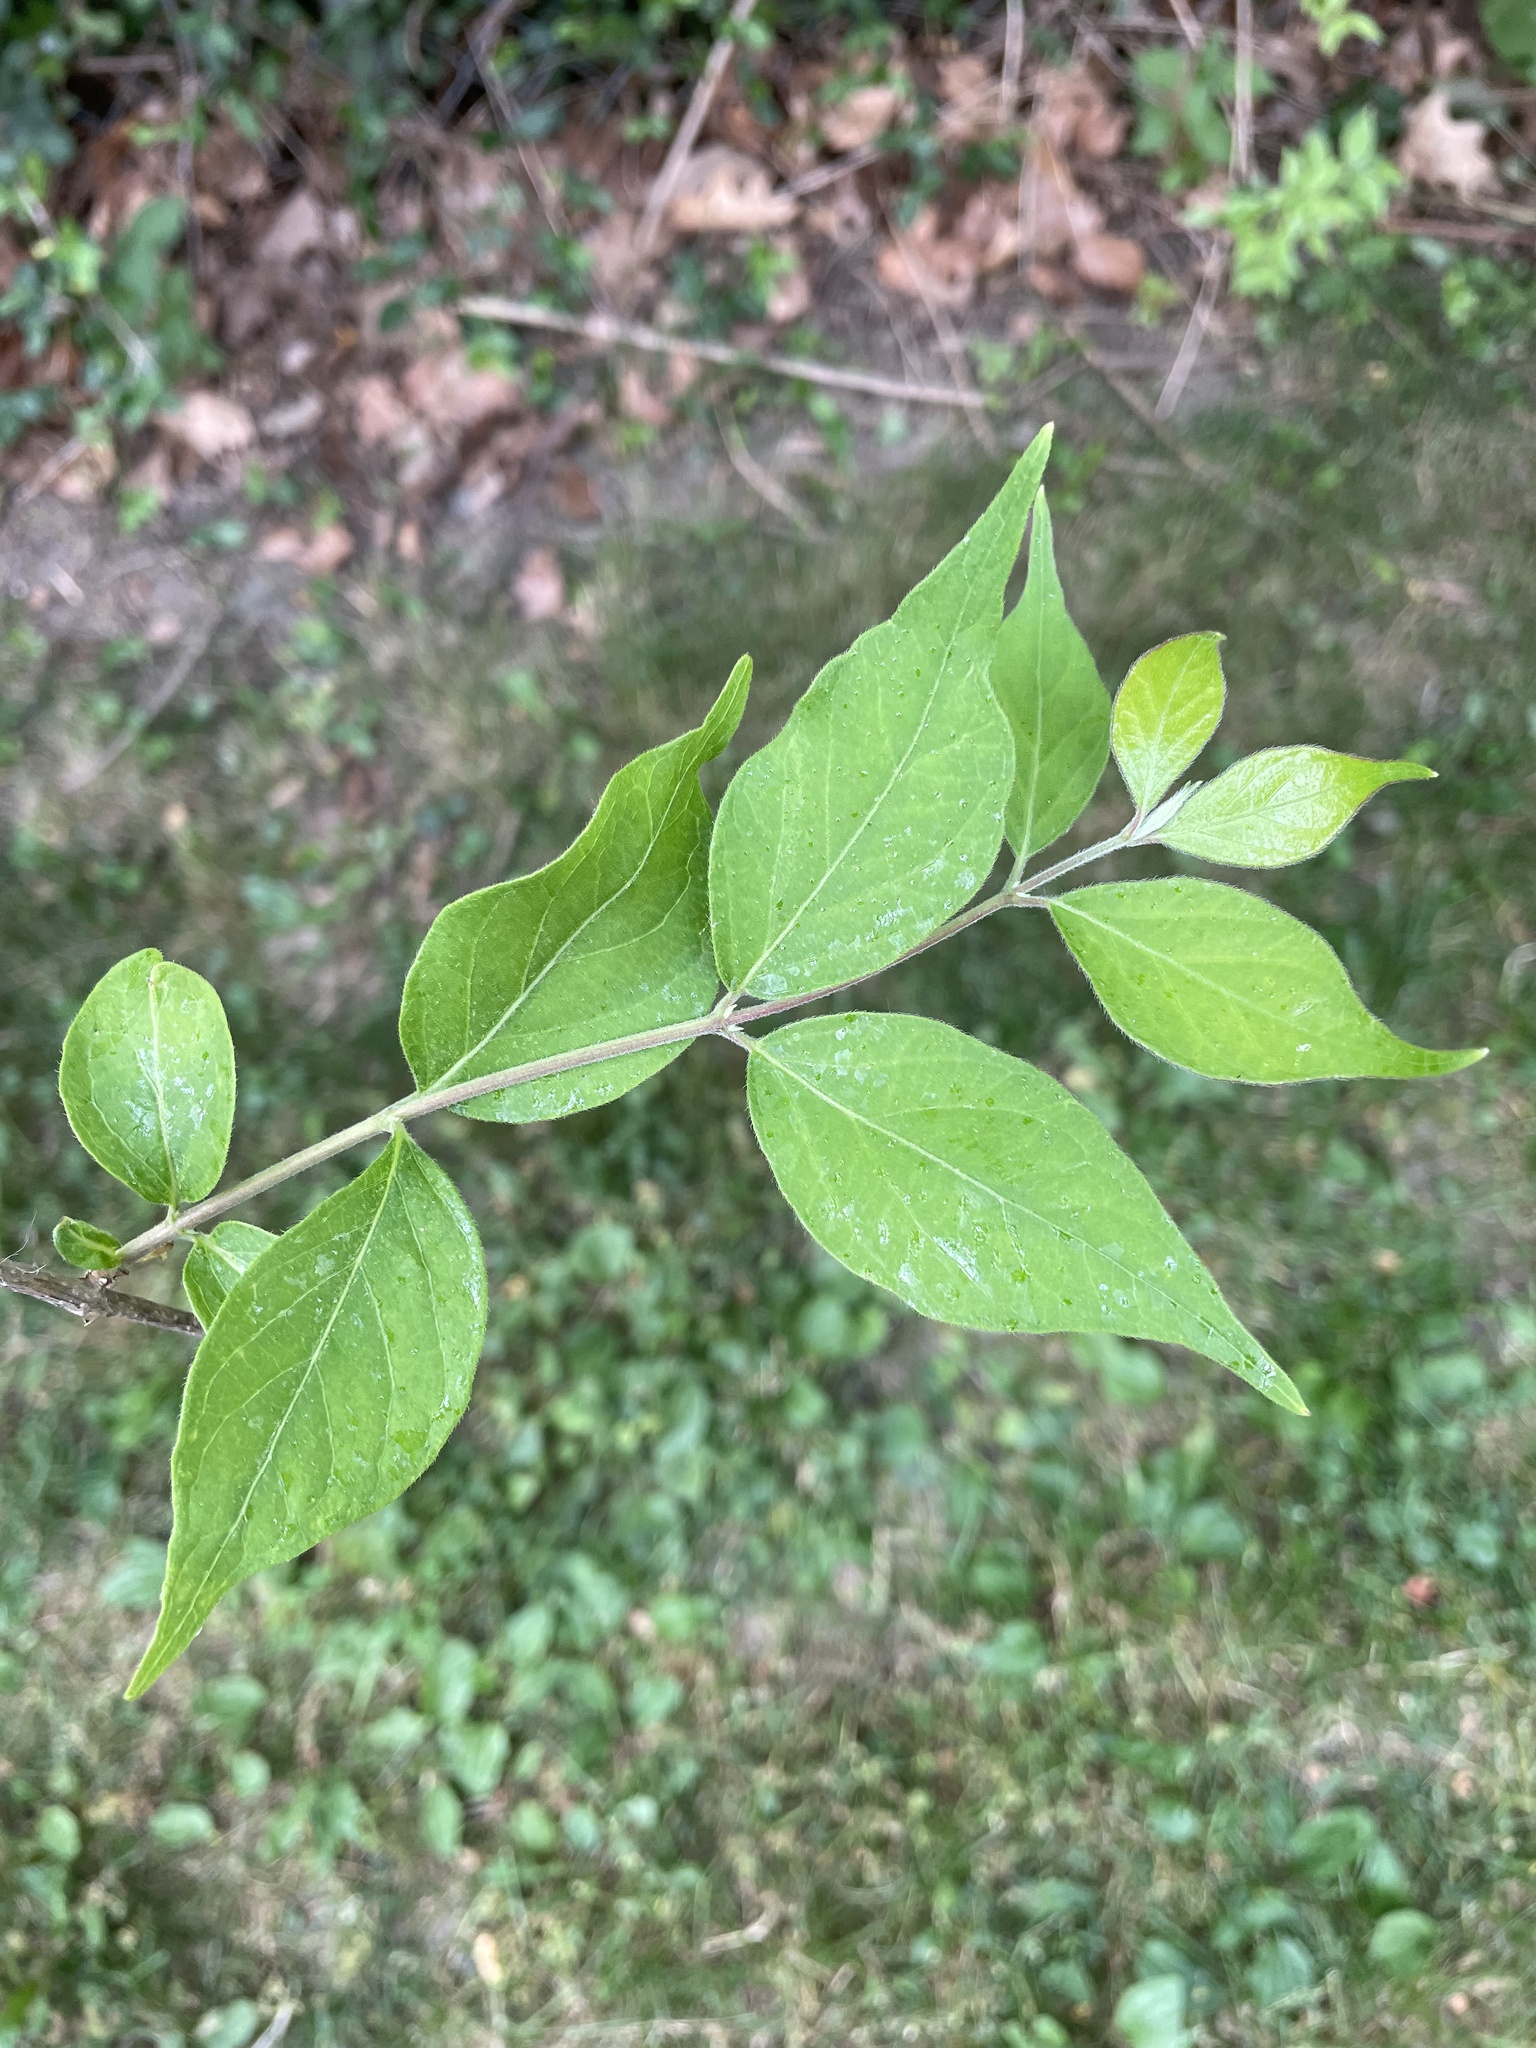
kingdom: Plantae
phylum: Tracheophyta
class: Magnoliopsida
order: Dipsacales
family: Caprifoliaceae
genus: Lonicera
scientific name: Lonicera maackii
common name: Amur honeysuckle
